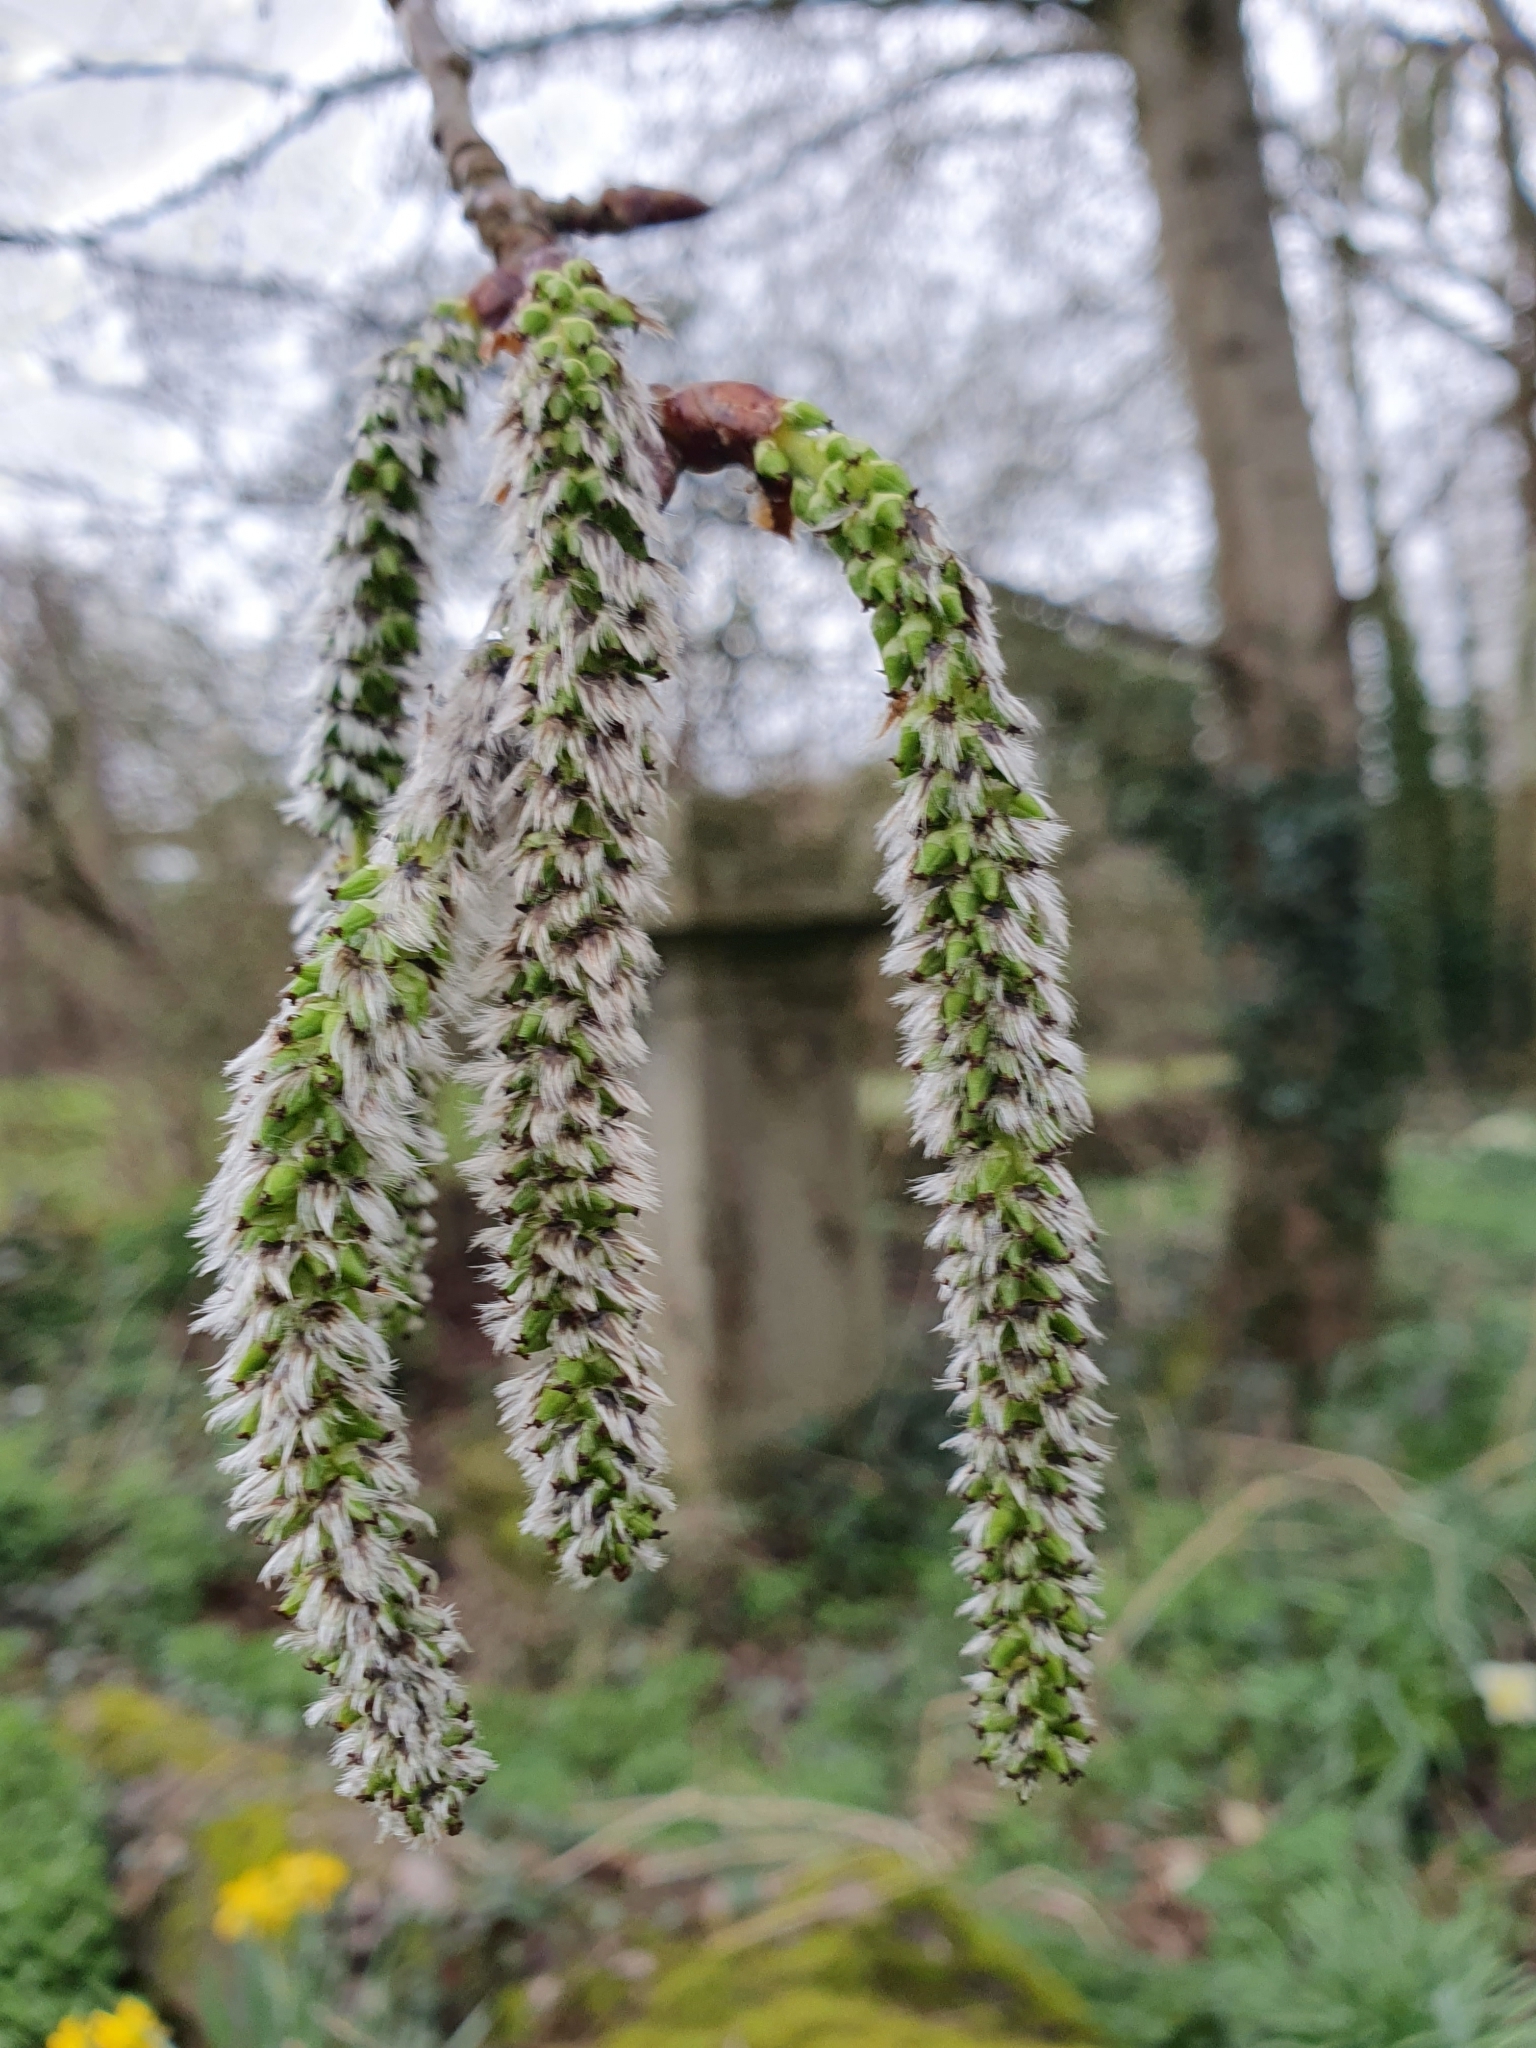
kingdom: Plantae
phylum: Tracheophyta
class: Magnoliopsida
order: Malpighiales
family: Salicaceae
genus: Populus
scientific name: Populus tremula
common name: European aspen
